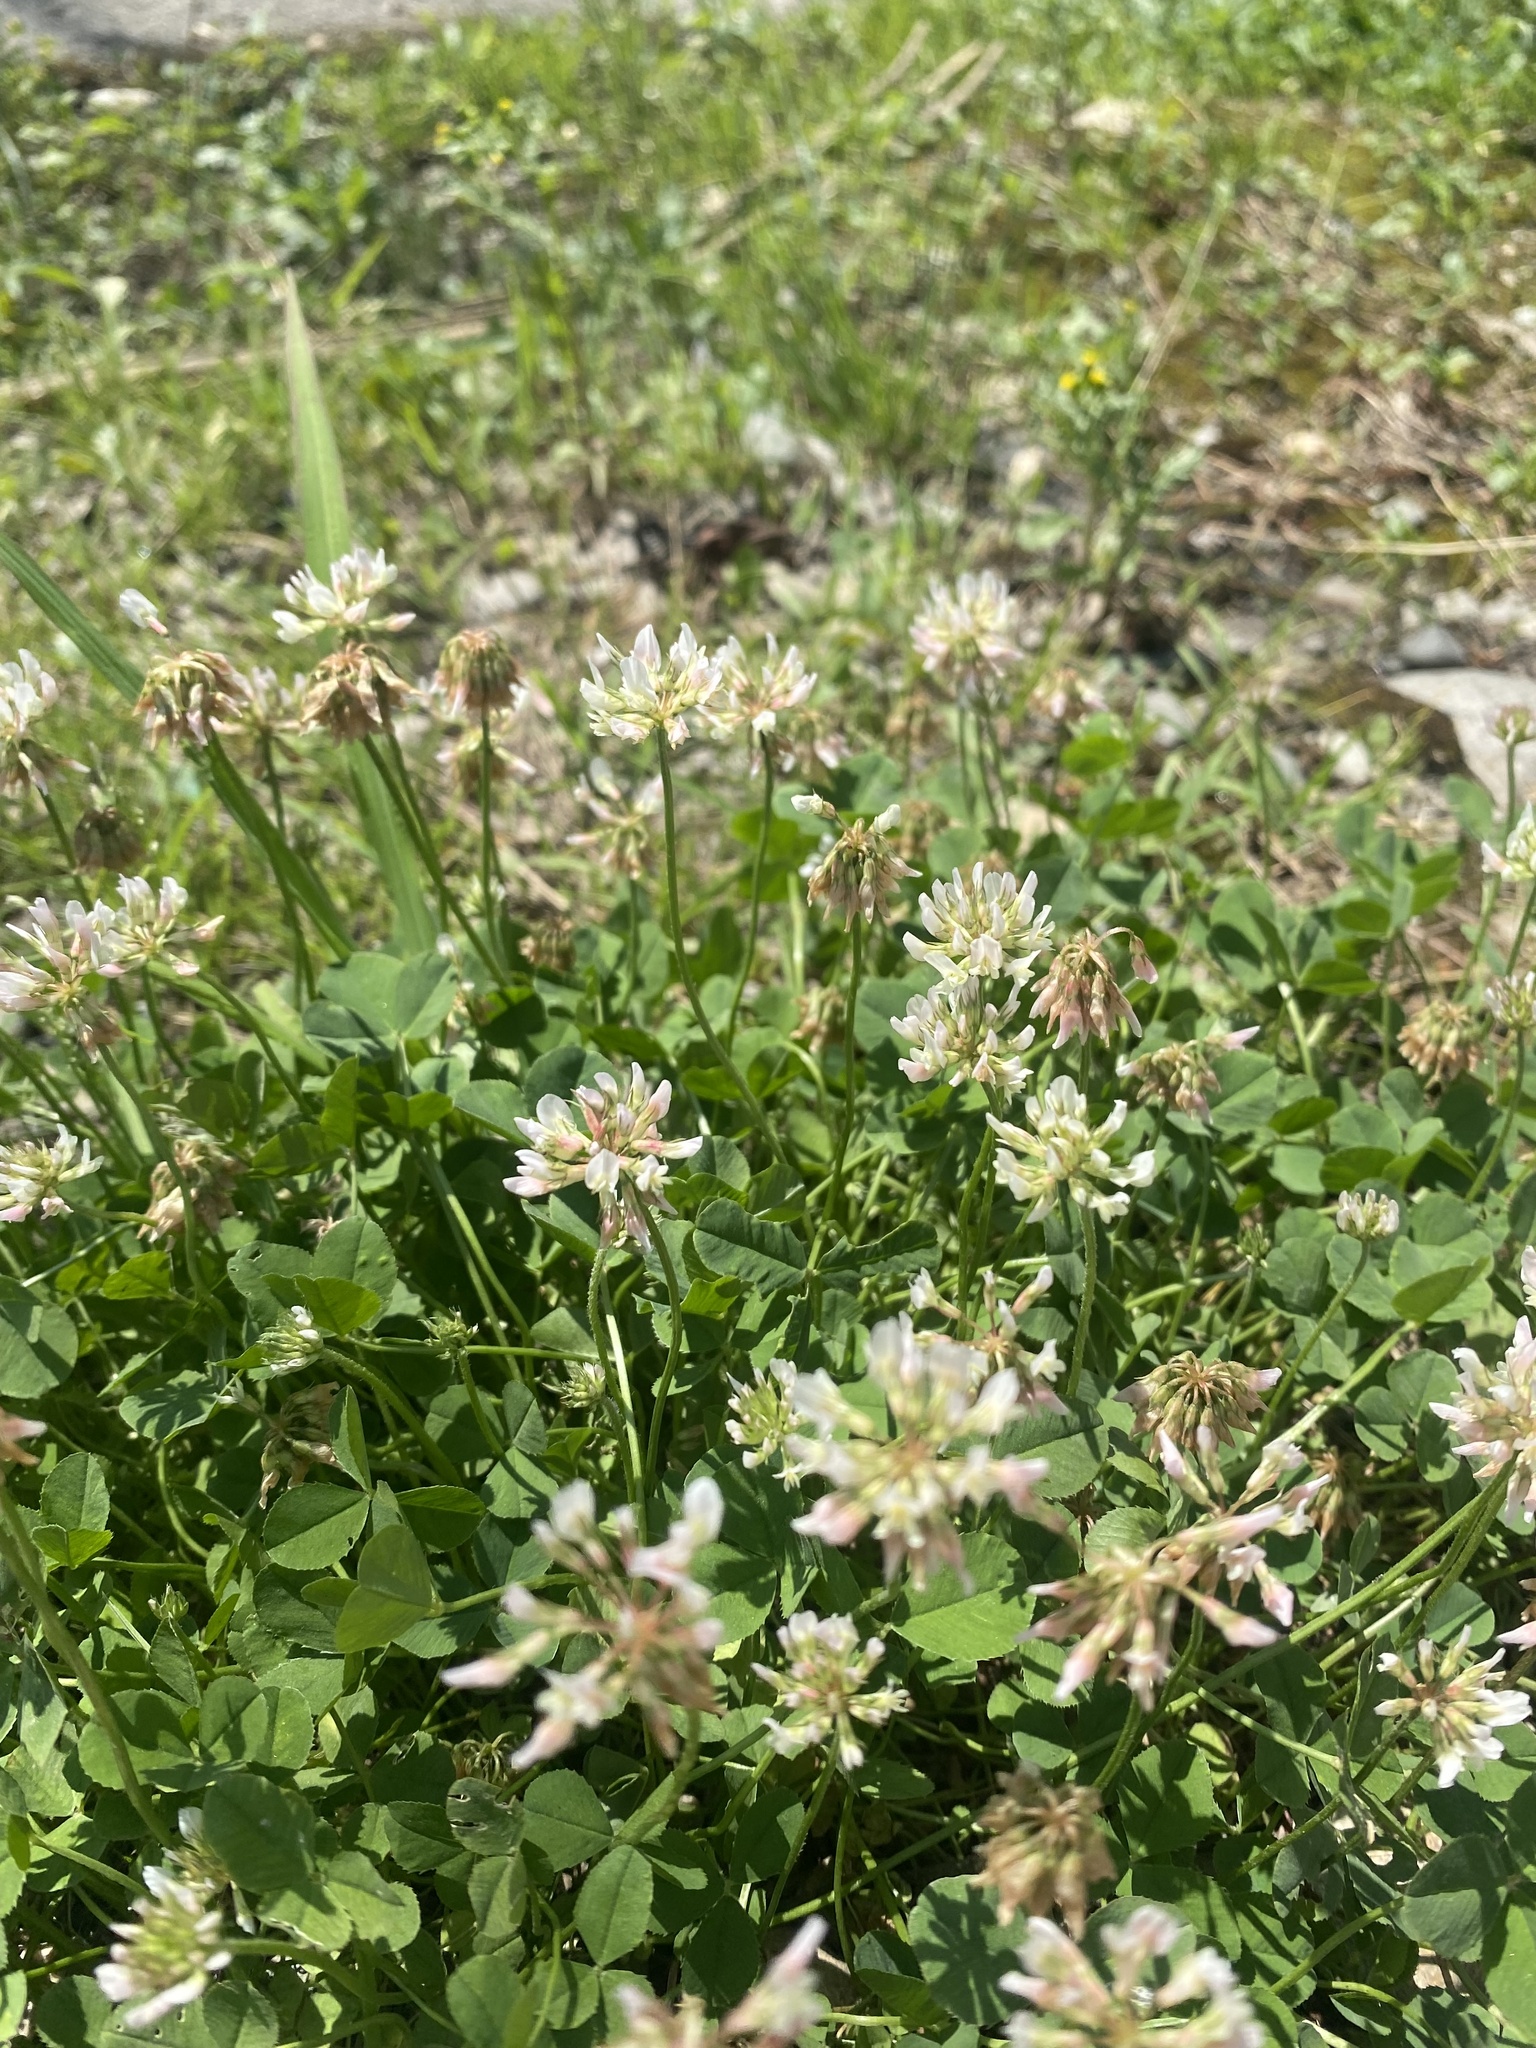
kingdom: Plantae
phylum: Tracheophyta
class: Magnoliopsida
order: Fabales
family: Fabaceae
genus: Trifolium
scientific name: Trifolium repens
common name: White clover
